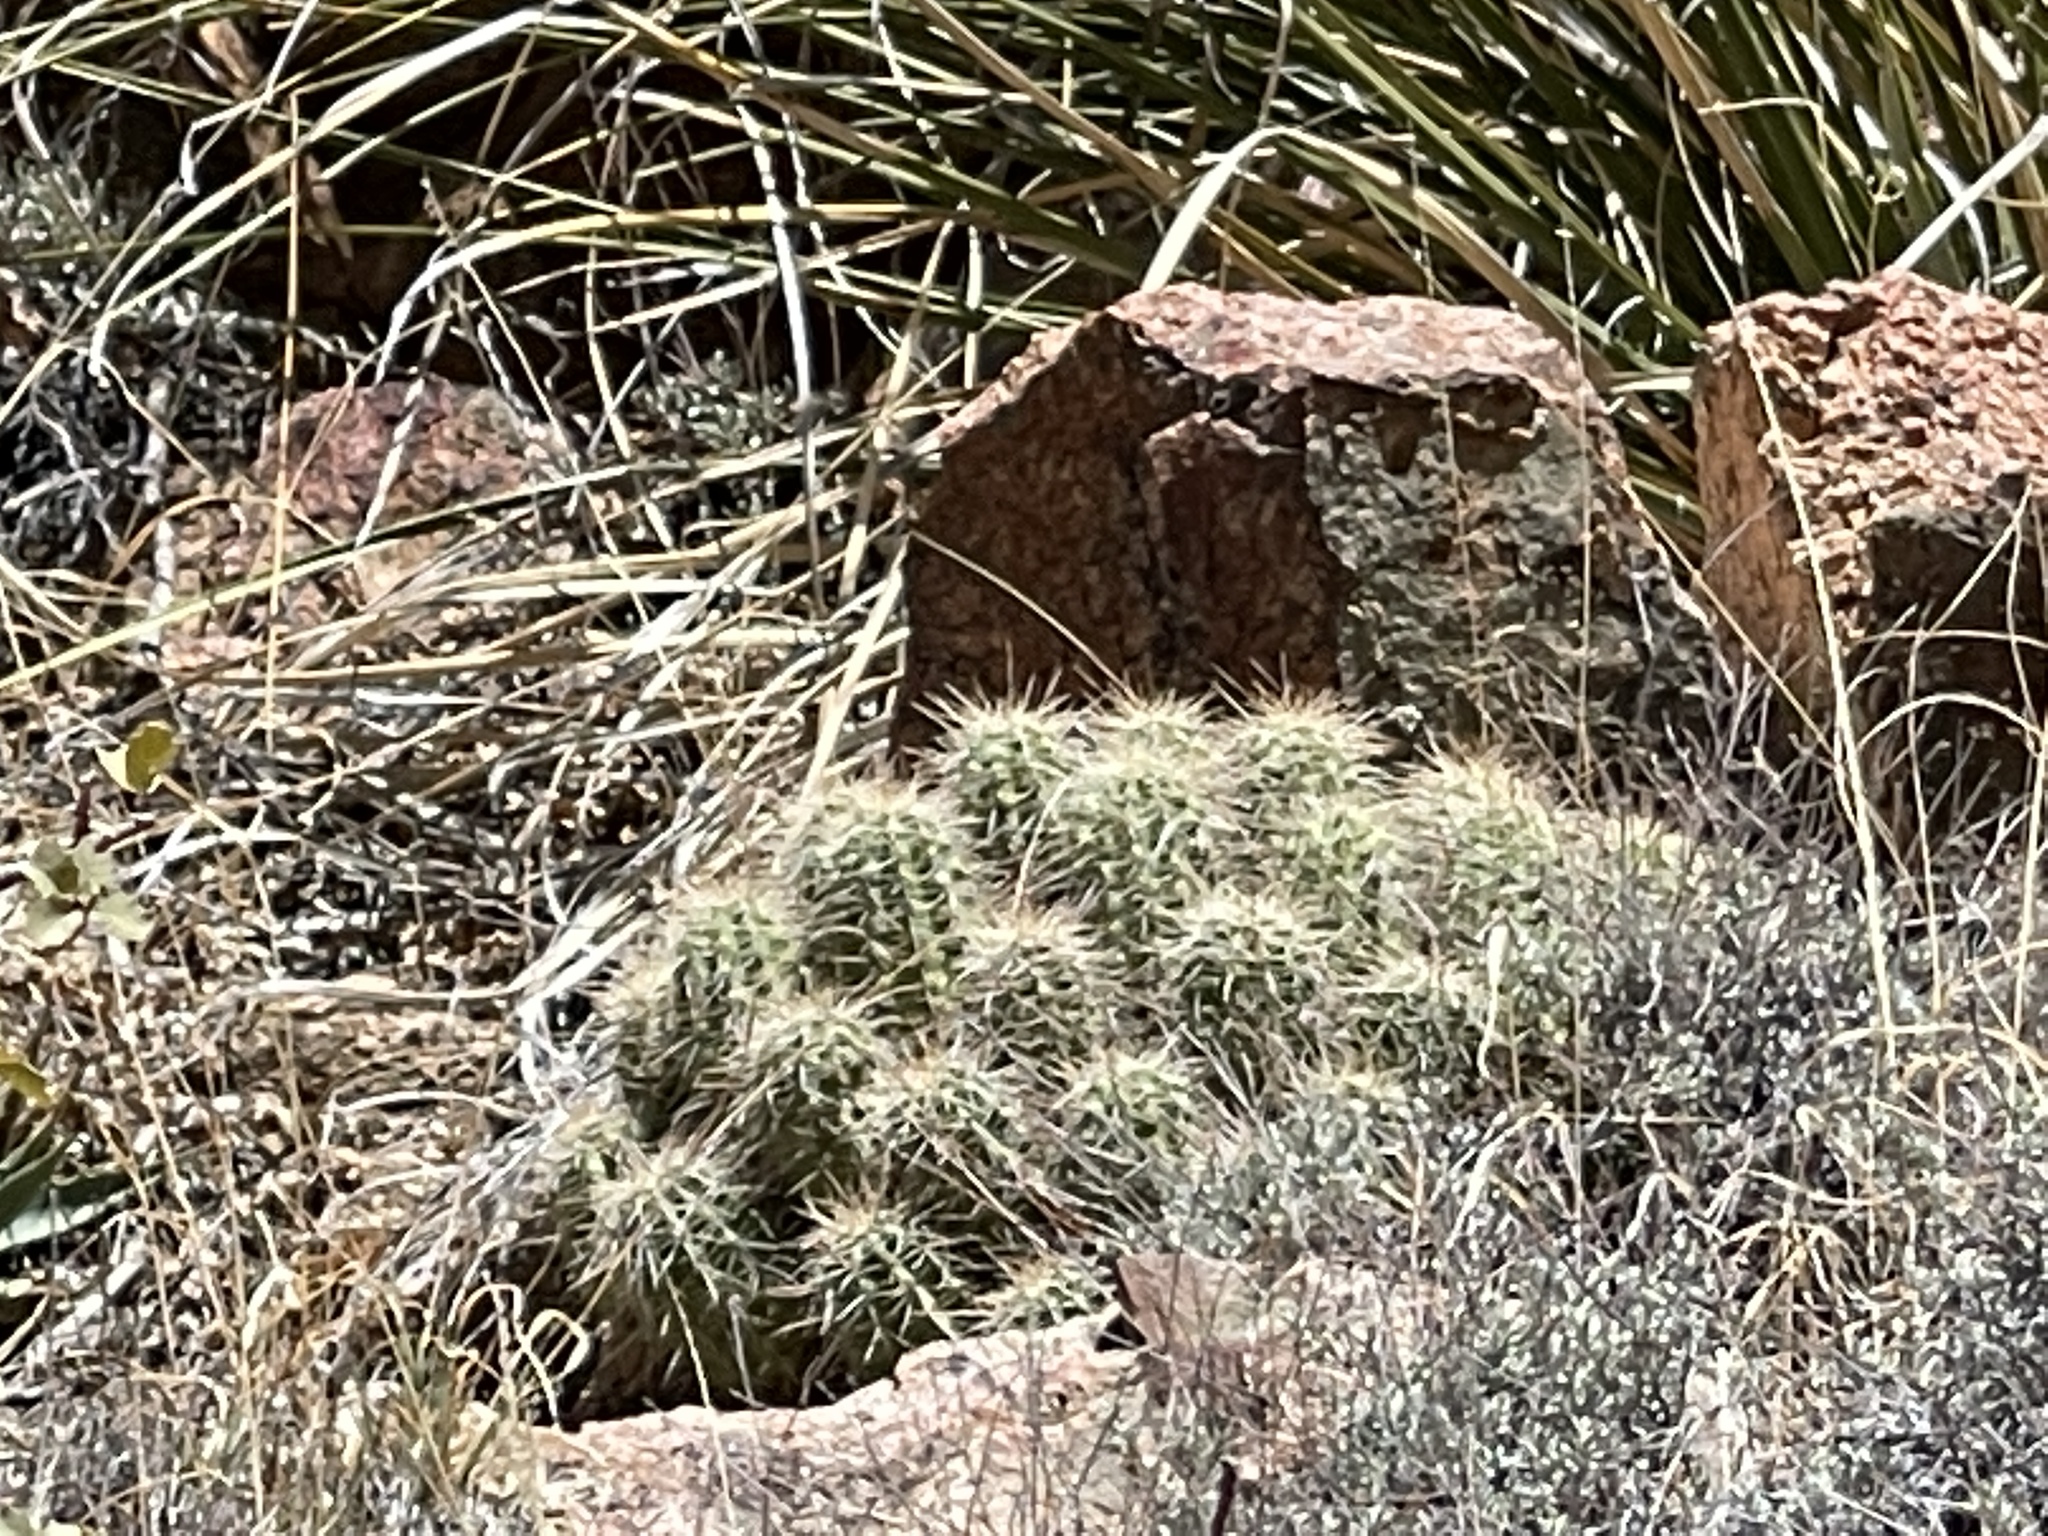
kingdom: Plantae
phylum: Tracheophyta
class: Magnoliopsida
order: Caryophyllales
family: Cactaceae
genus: Echinocereus
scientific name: Echinocereus bakeri
